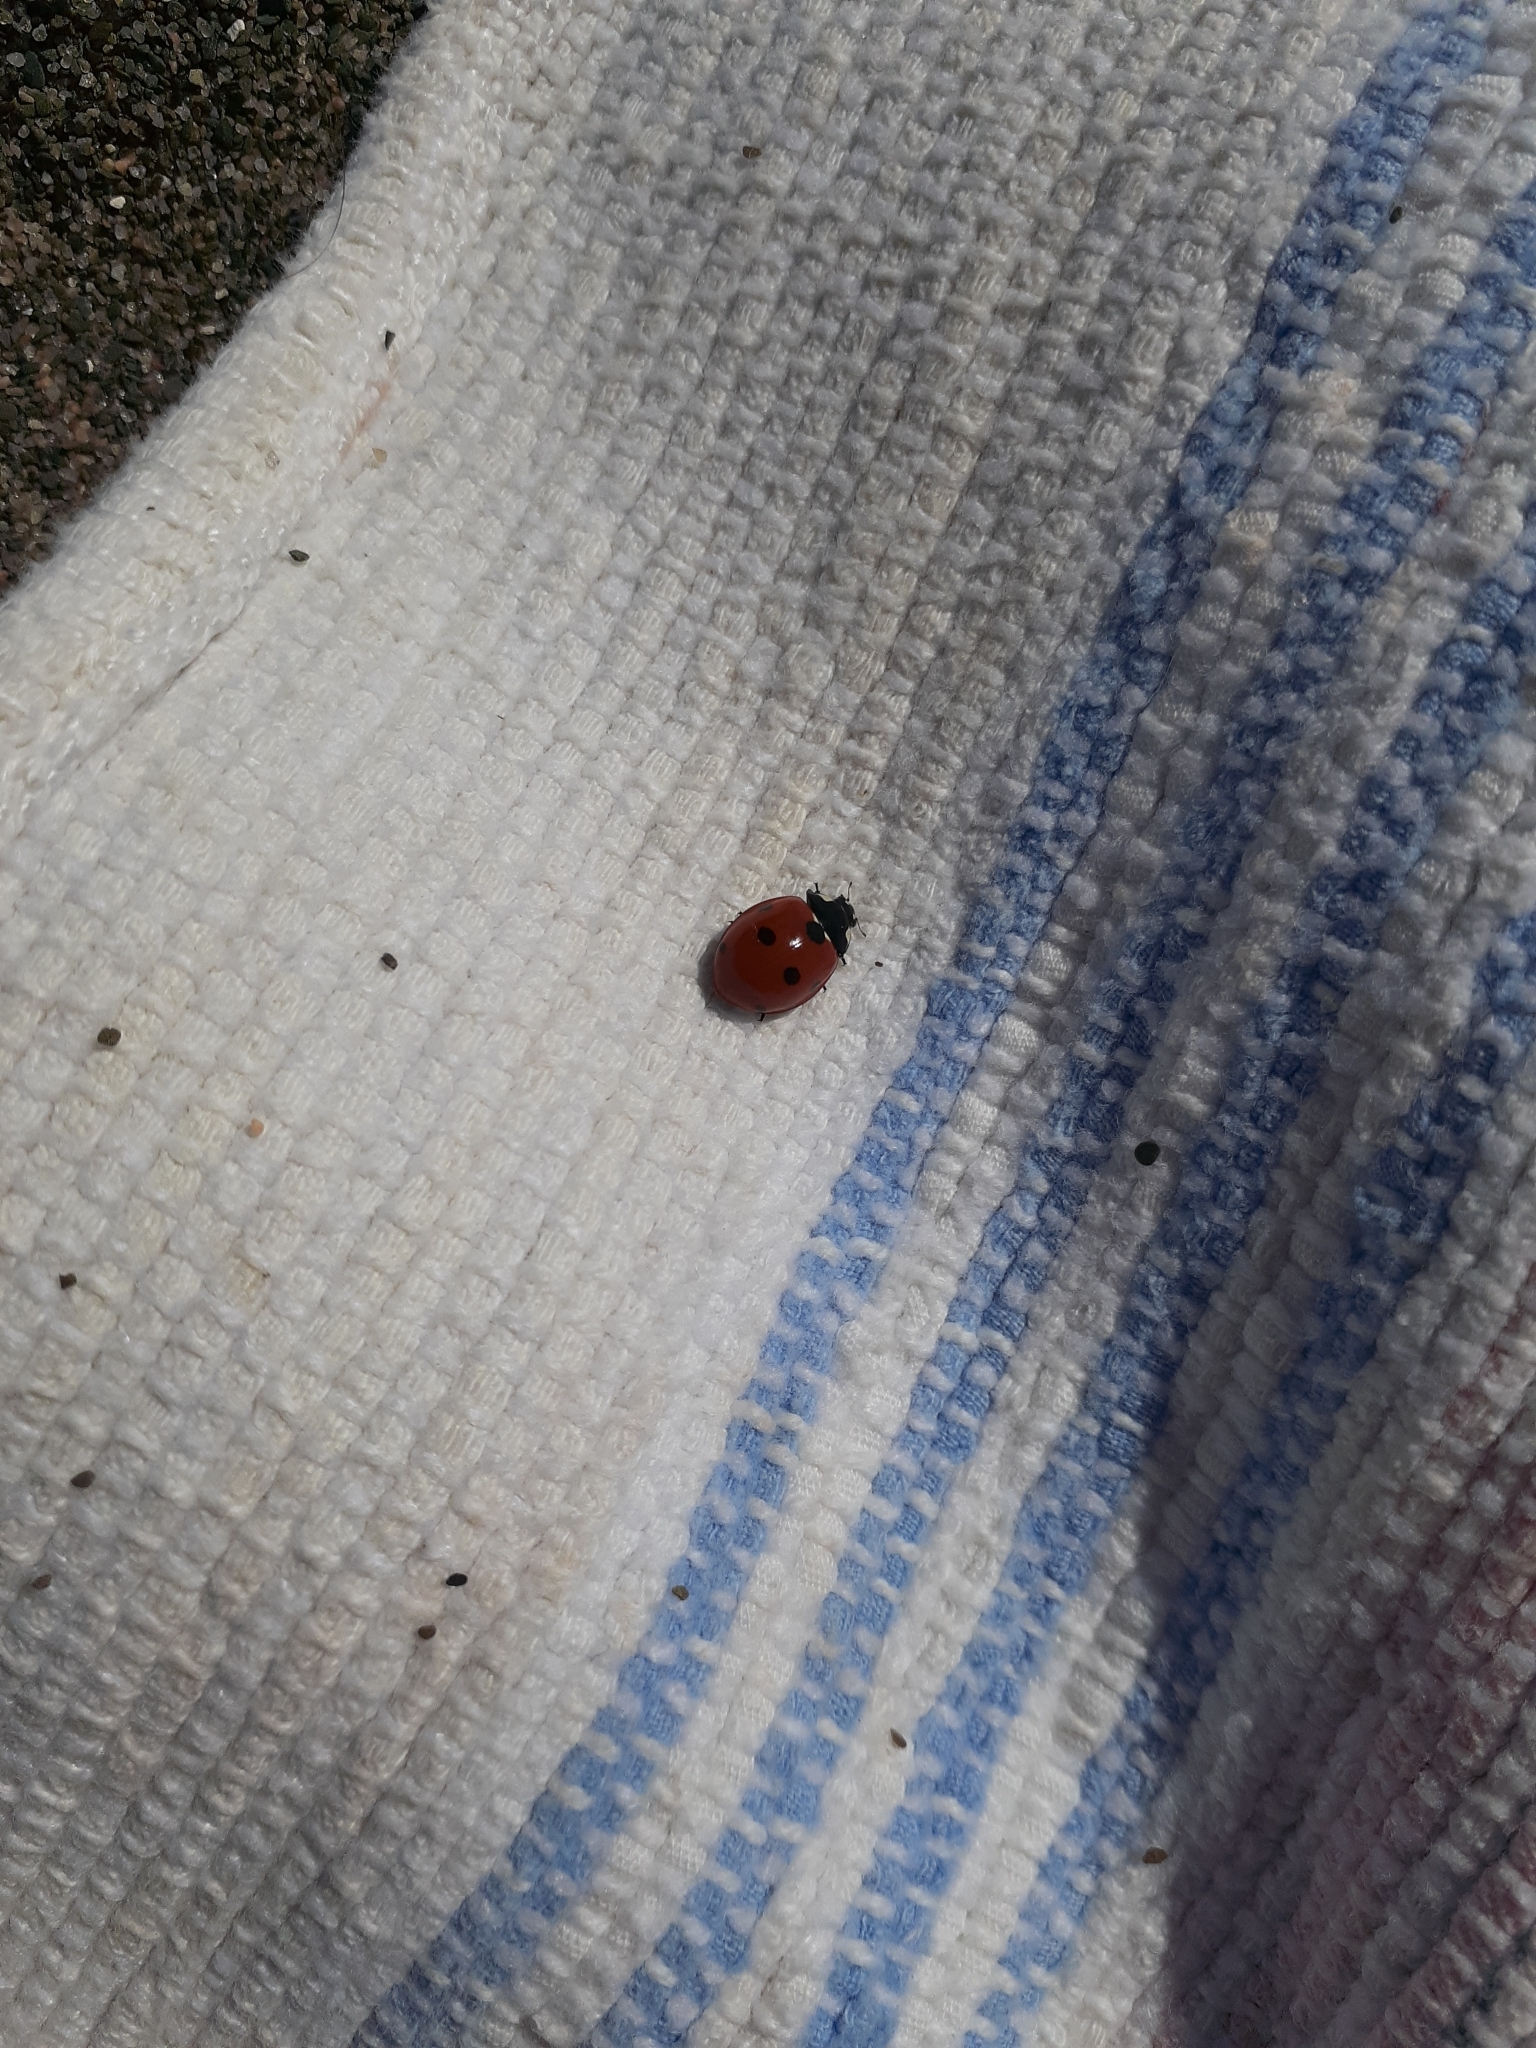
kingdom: Animalia
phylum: Arthropoda
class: Insecta
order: Coleoptera
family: Coccinellidae
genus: Coccinella
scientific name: Coccinella septempunctata
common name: Sevenspotted lady beetle
